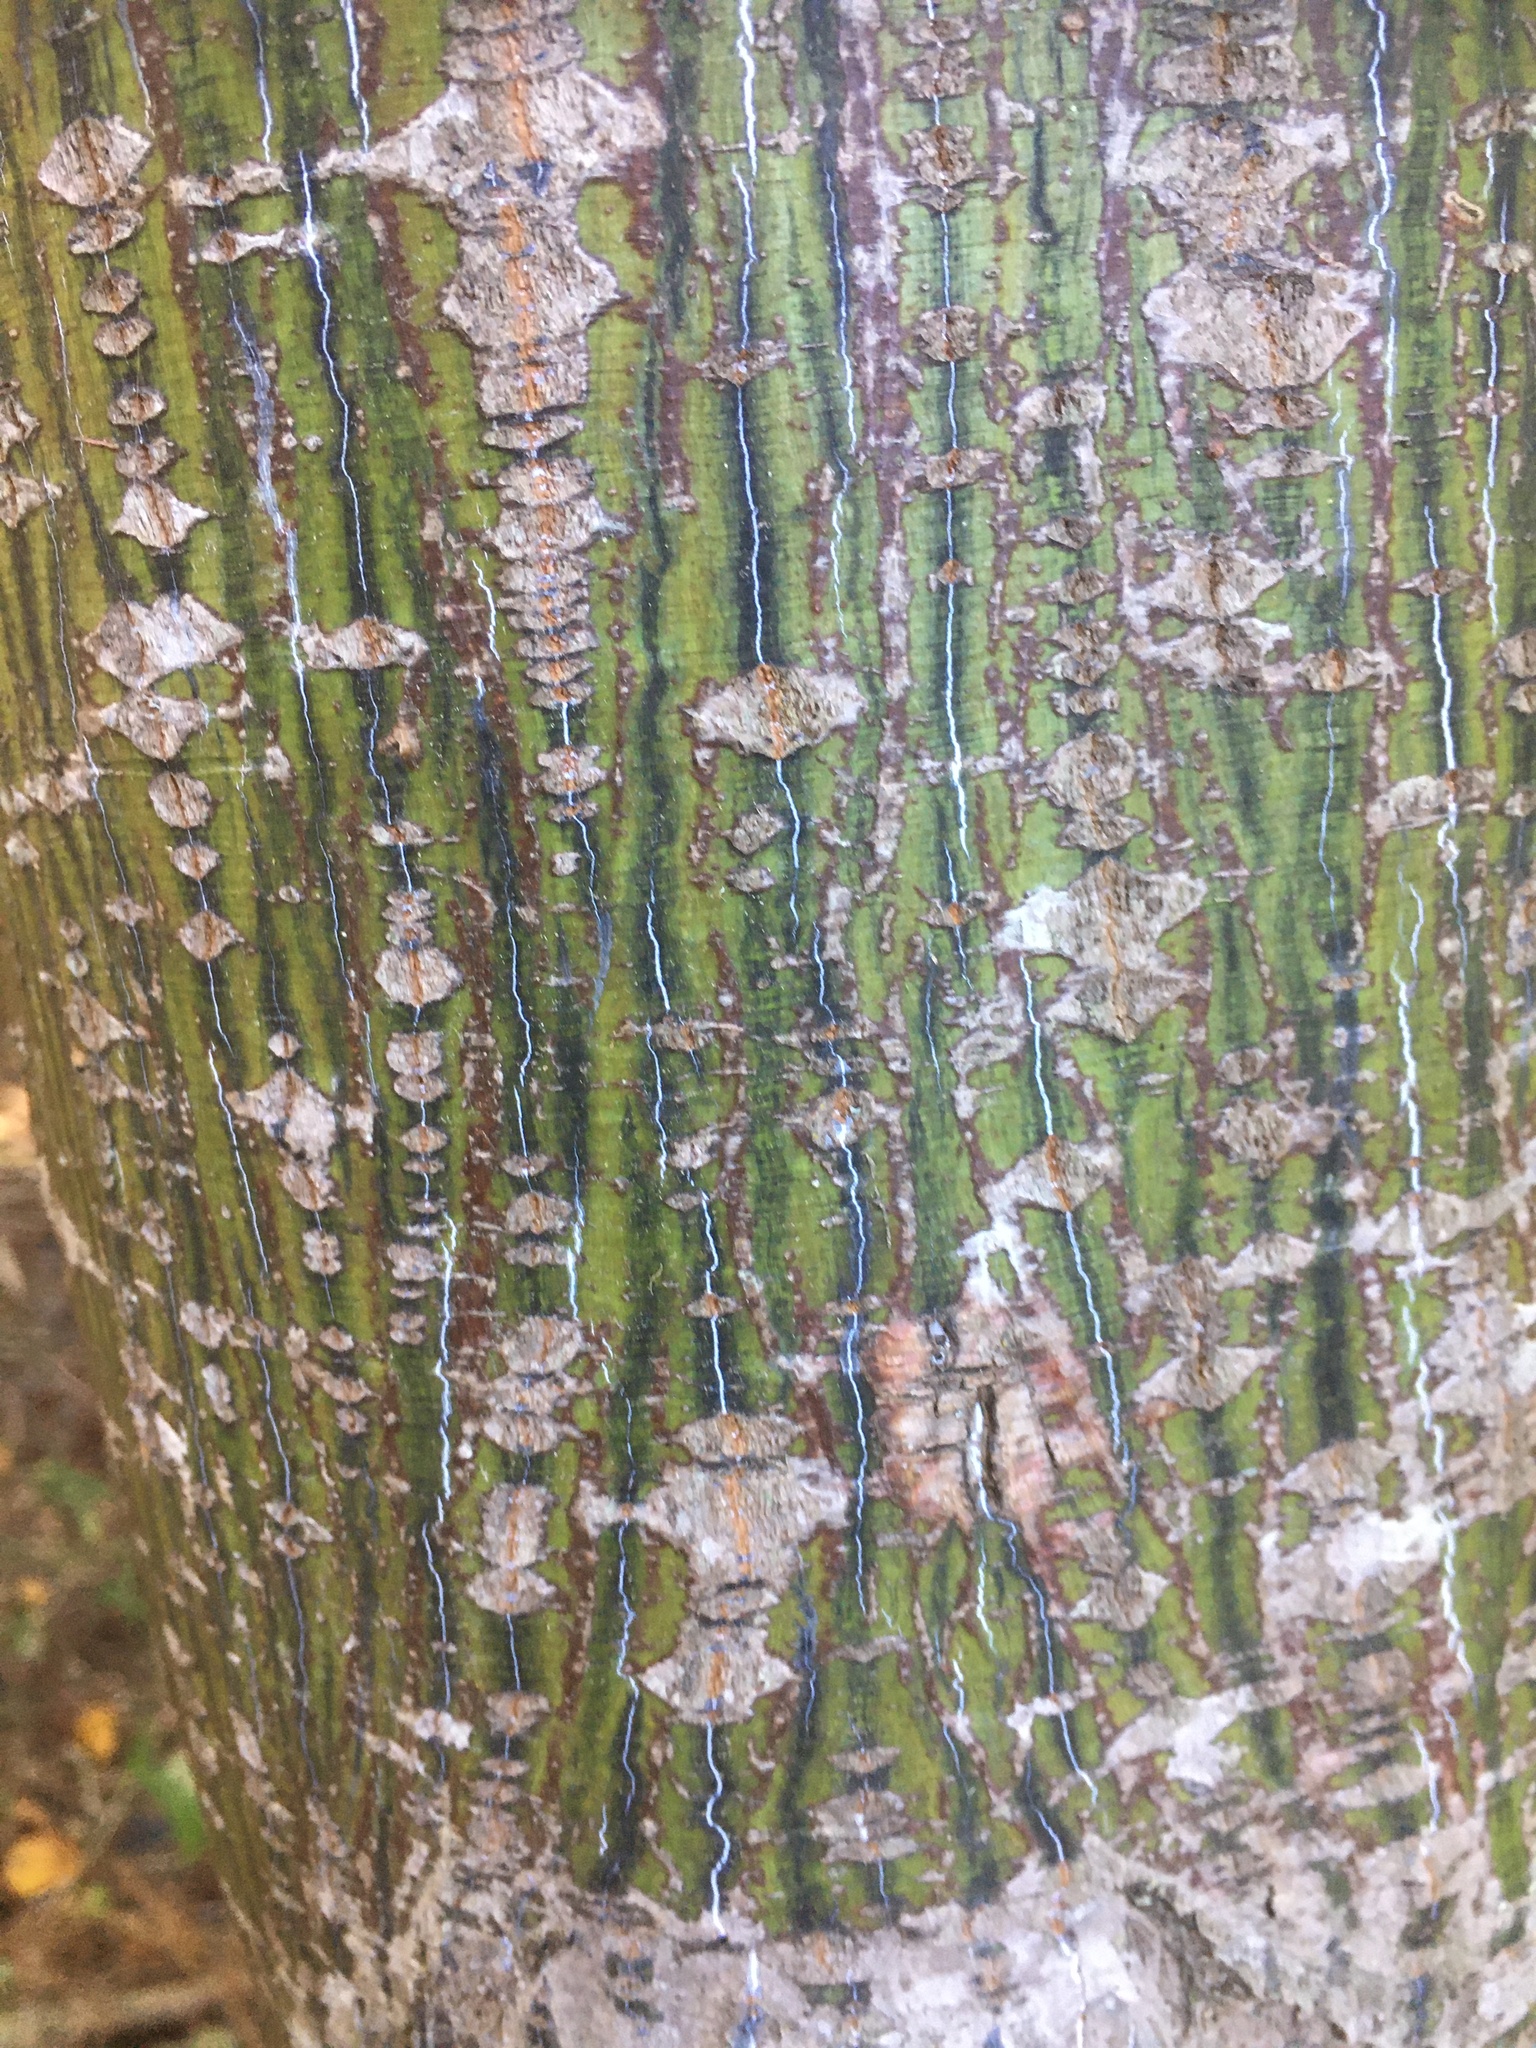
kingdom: Plantae
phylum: Tracheophyta
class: Magnoliopsida
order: Sapindales
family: Sapindaceae
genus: Acer
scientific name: Acer pensylvanicum
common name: Moosewood
